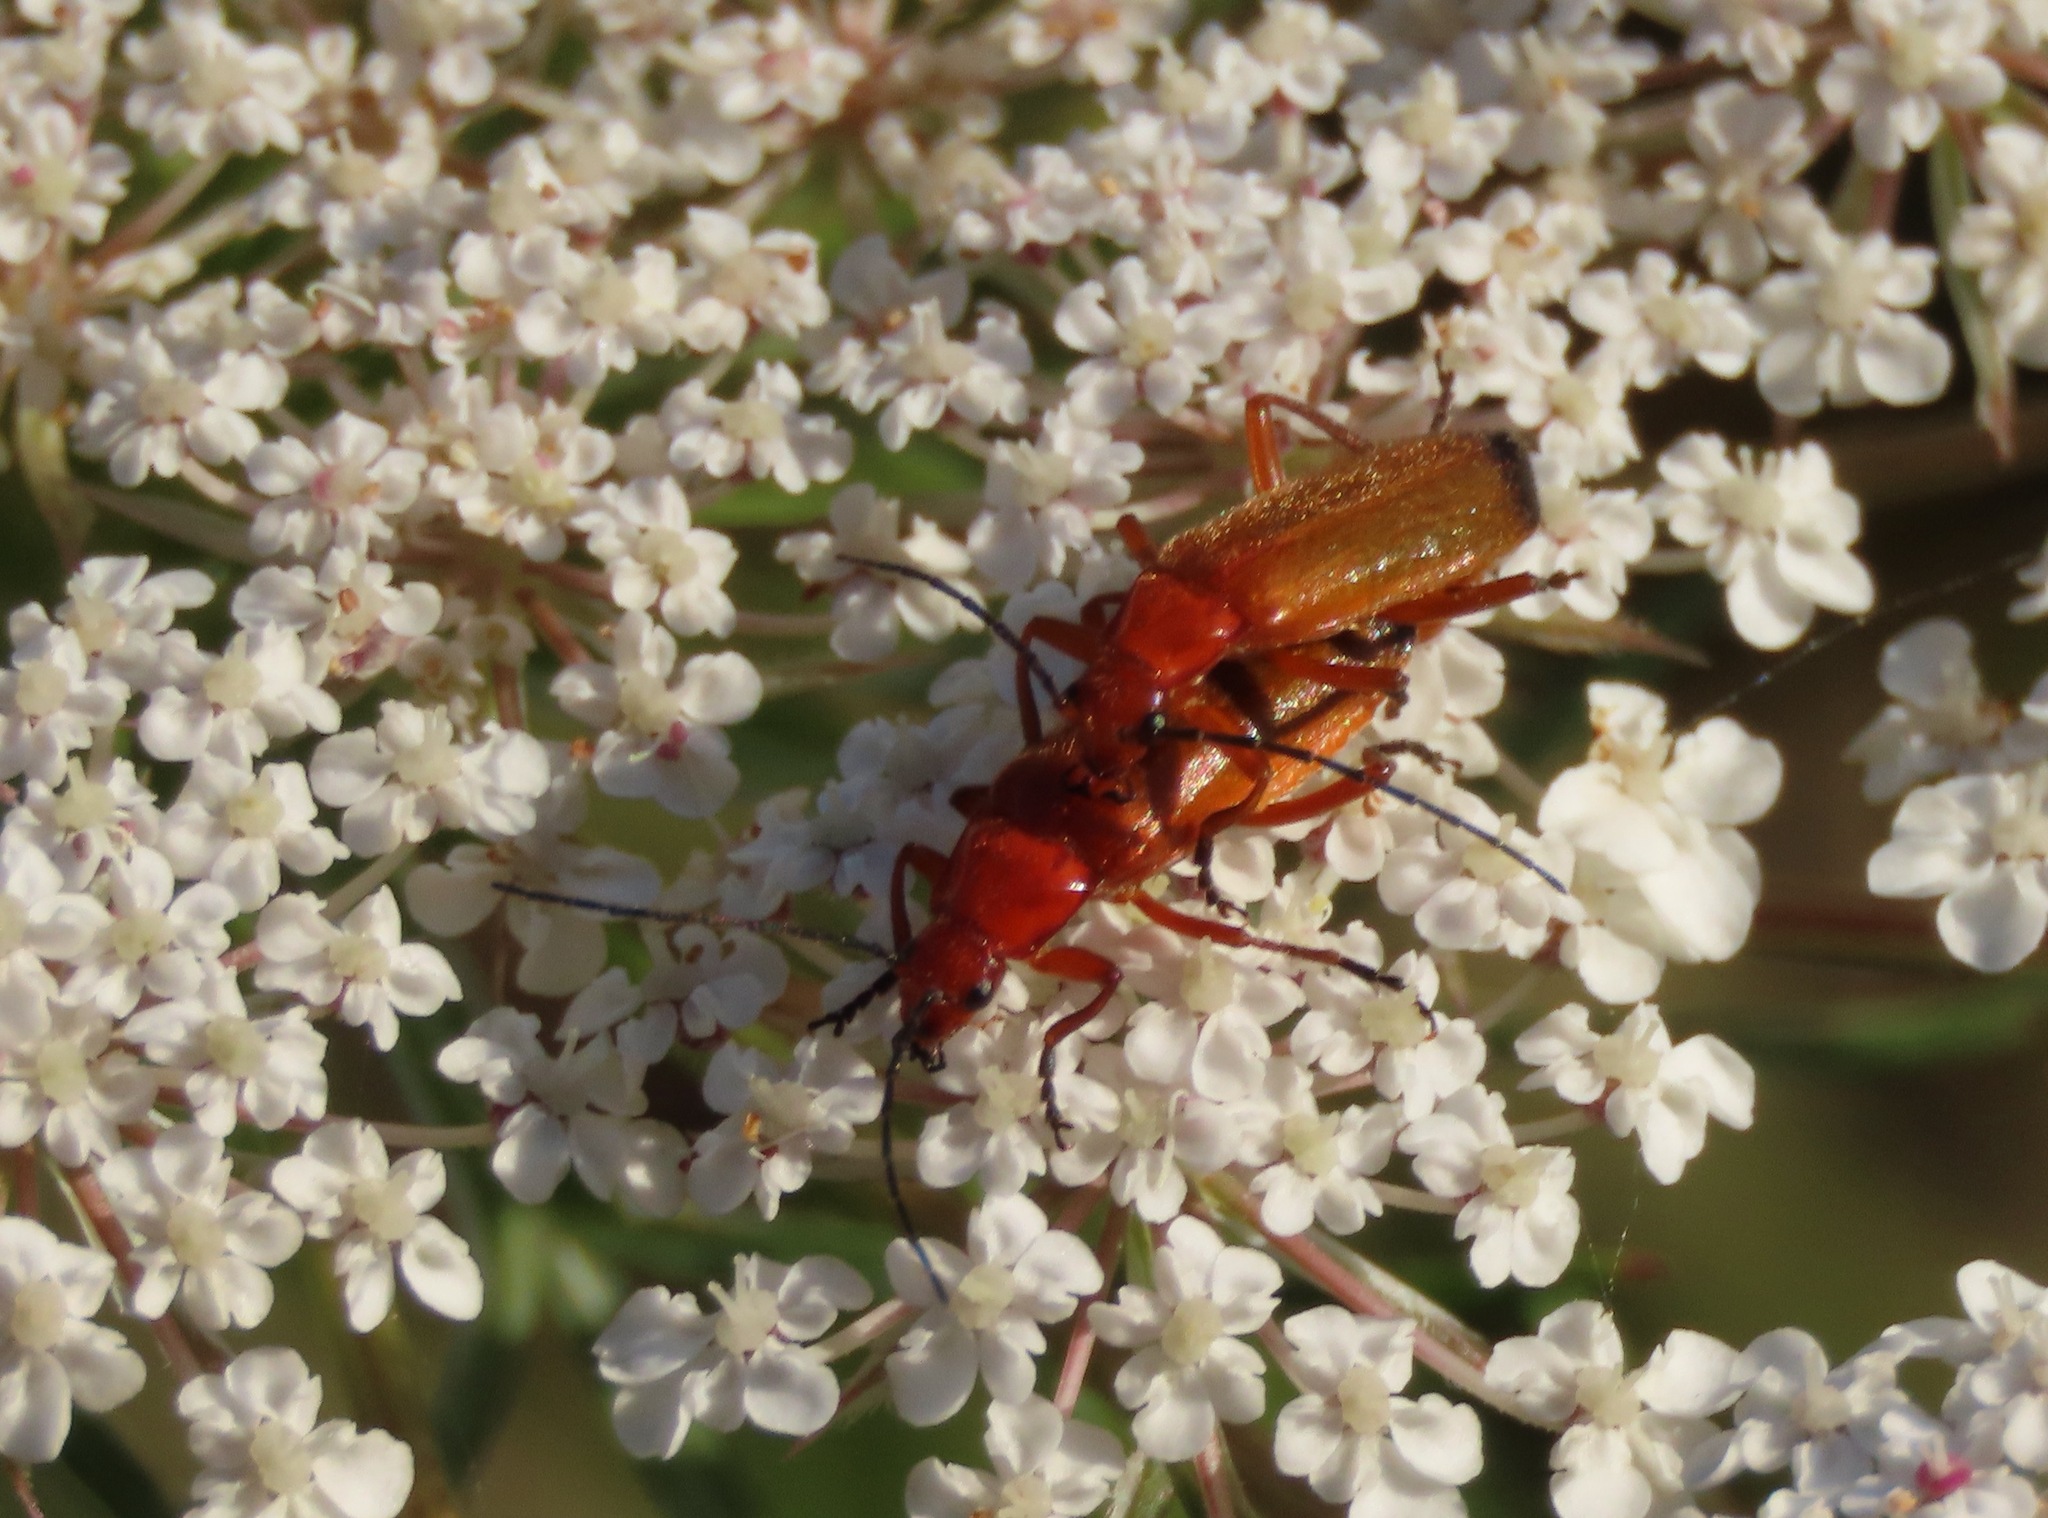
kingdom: Animalia
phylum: Arthropoda
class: Insecta
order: Coleoptera
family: Cantharidae
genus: Rhagonycha
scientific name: Rhagonycha fulva
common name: Common red soldier beetle
